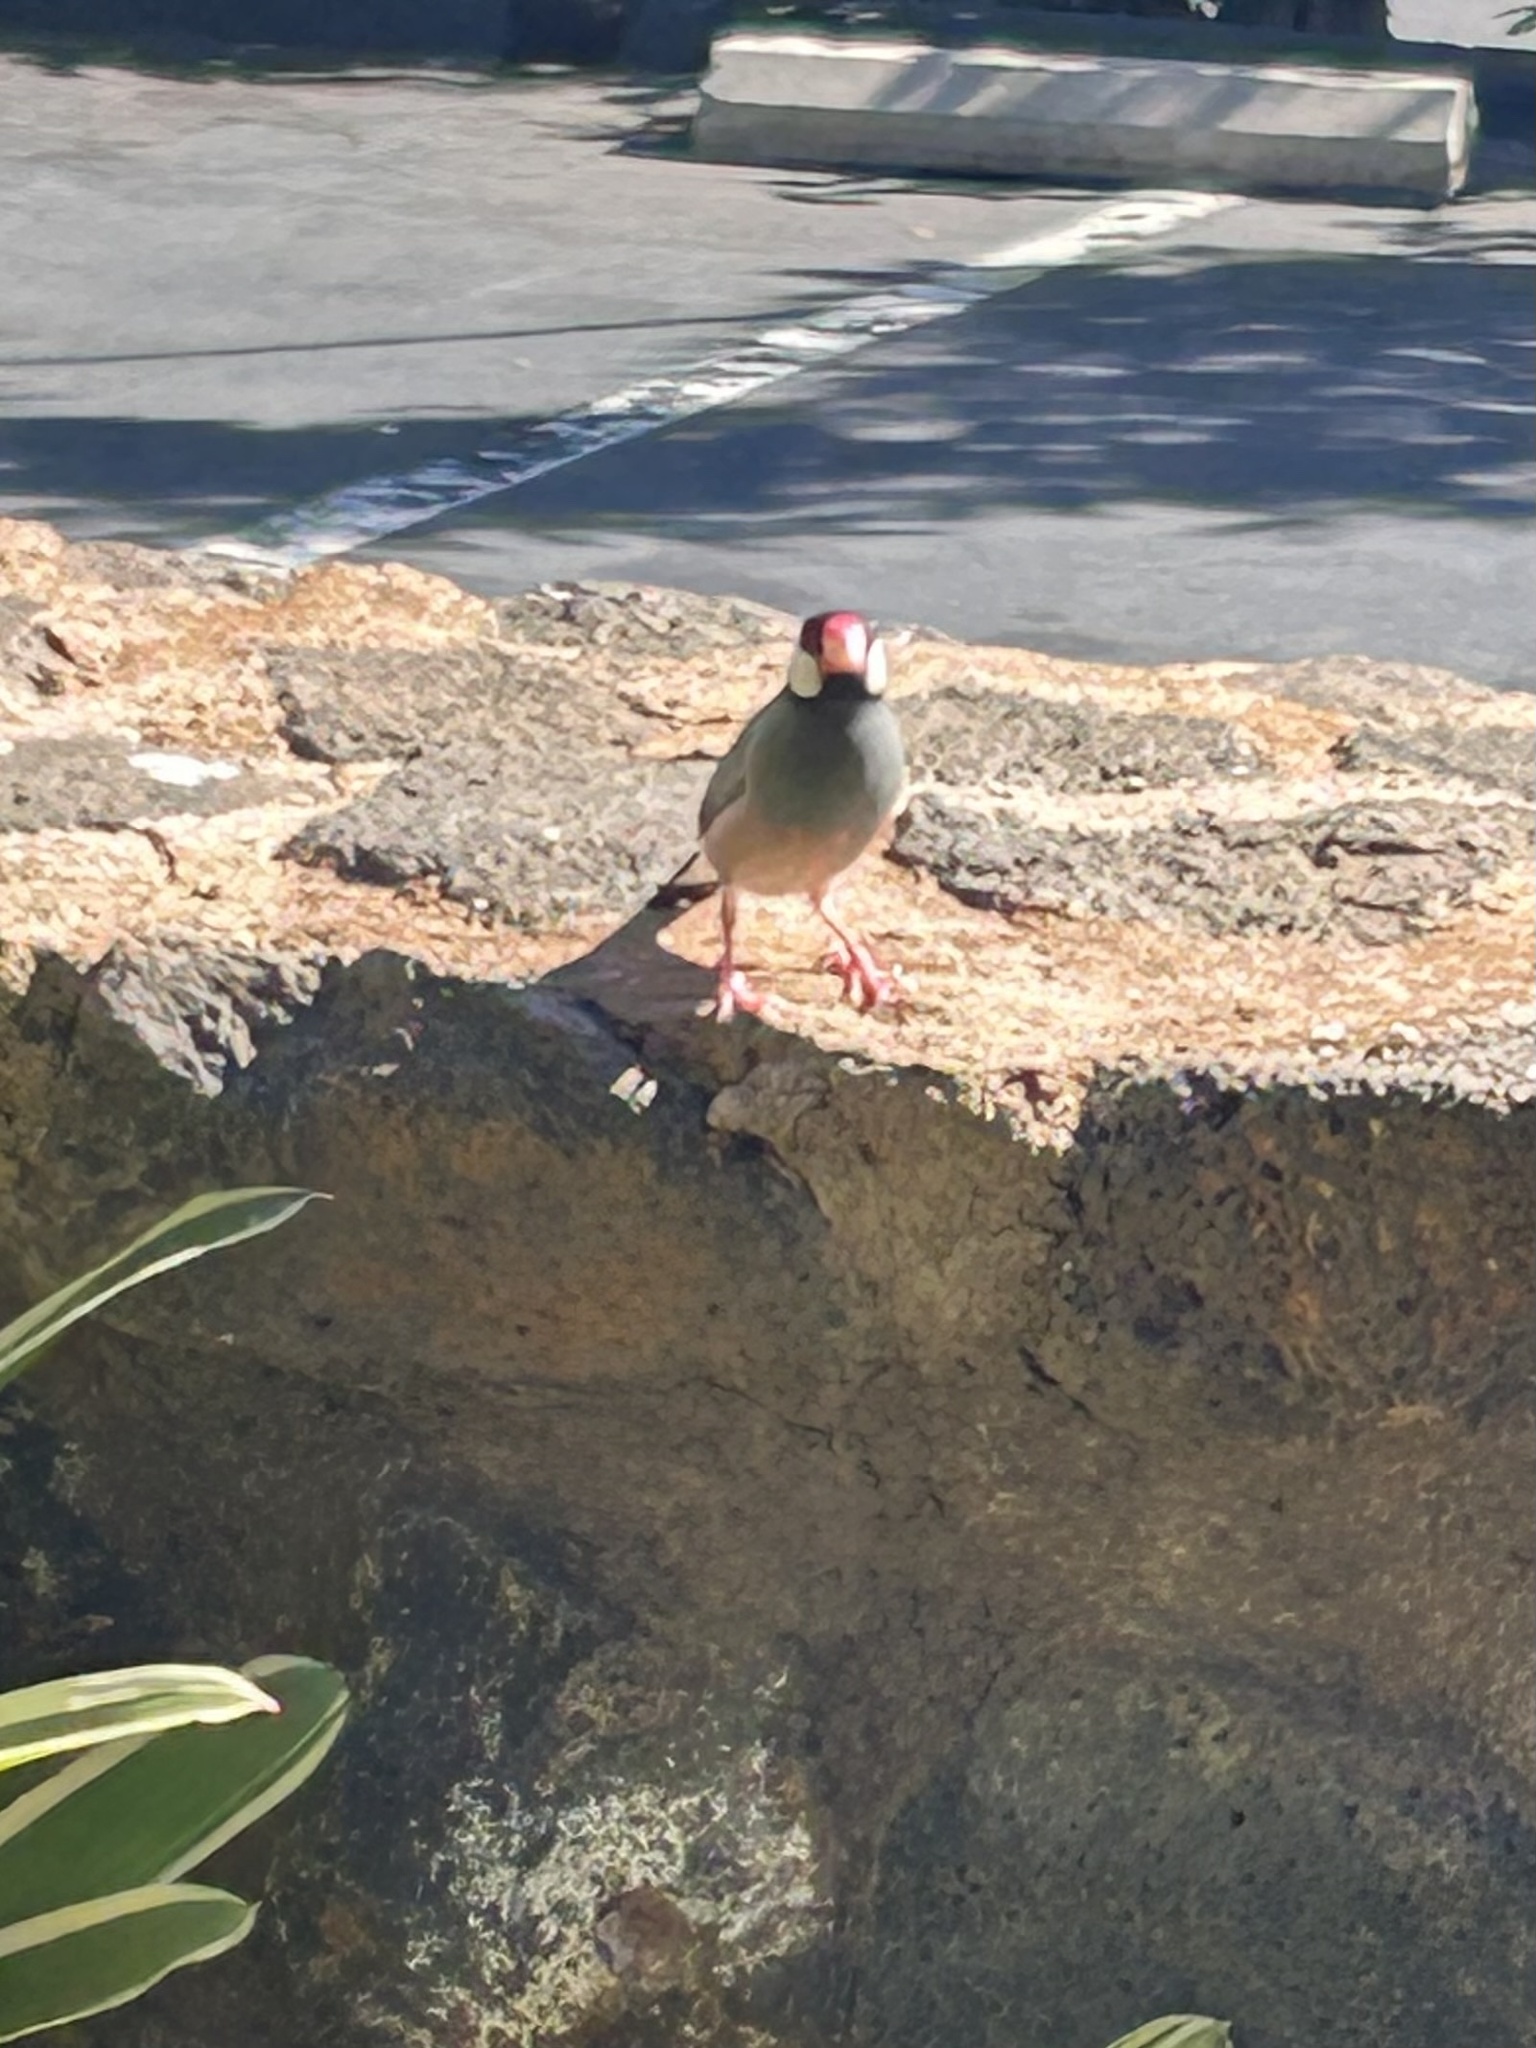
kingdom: Animalia
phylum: Chordata
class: Aves
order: Passeriformes
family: Estrildidae
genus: Lonchura
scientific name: Lonchura oryzivora
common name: Java sparrow
